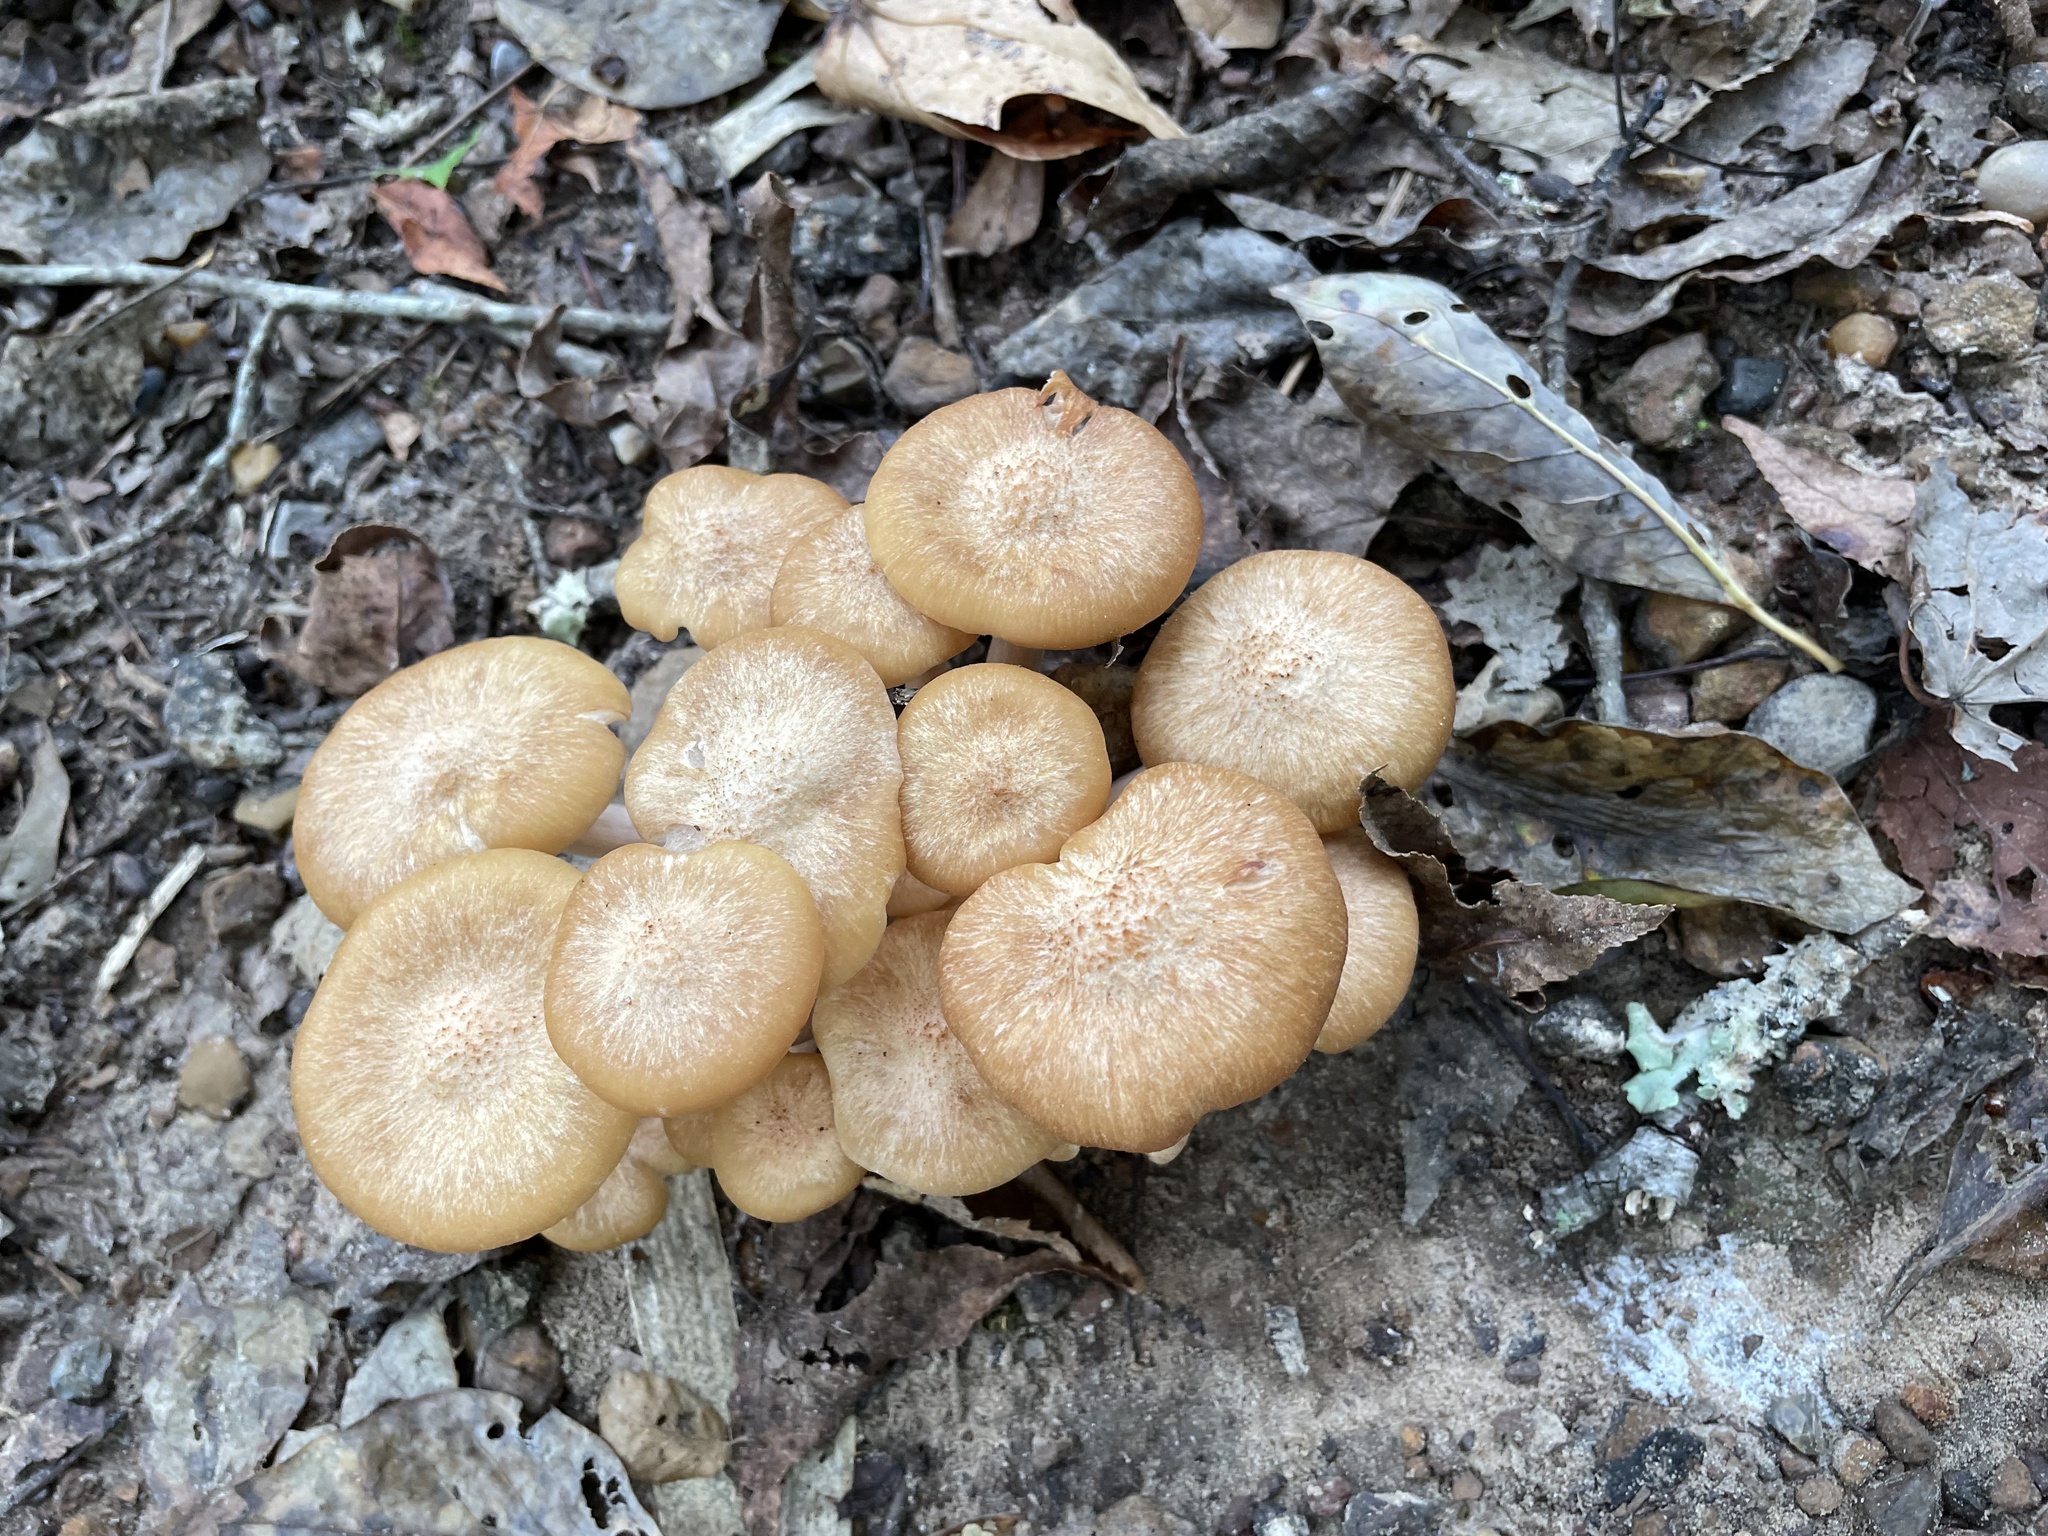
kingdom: Fungi
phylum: Basidiomycota
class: Agaricomycetes
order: Agaricales
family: Physalacriaceae
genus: Desarmillaria
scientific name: Desarmillaria caespitosa
